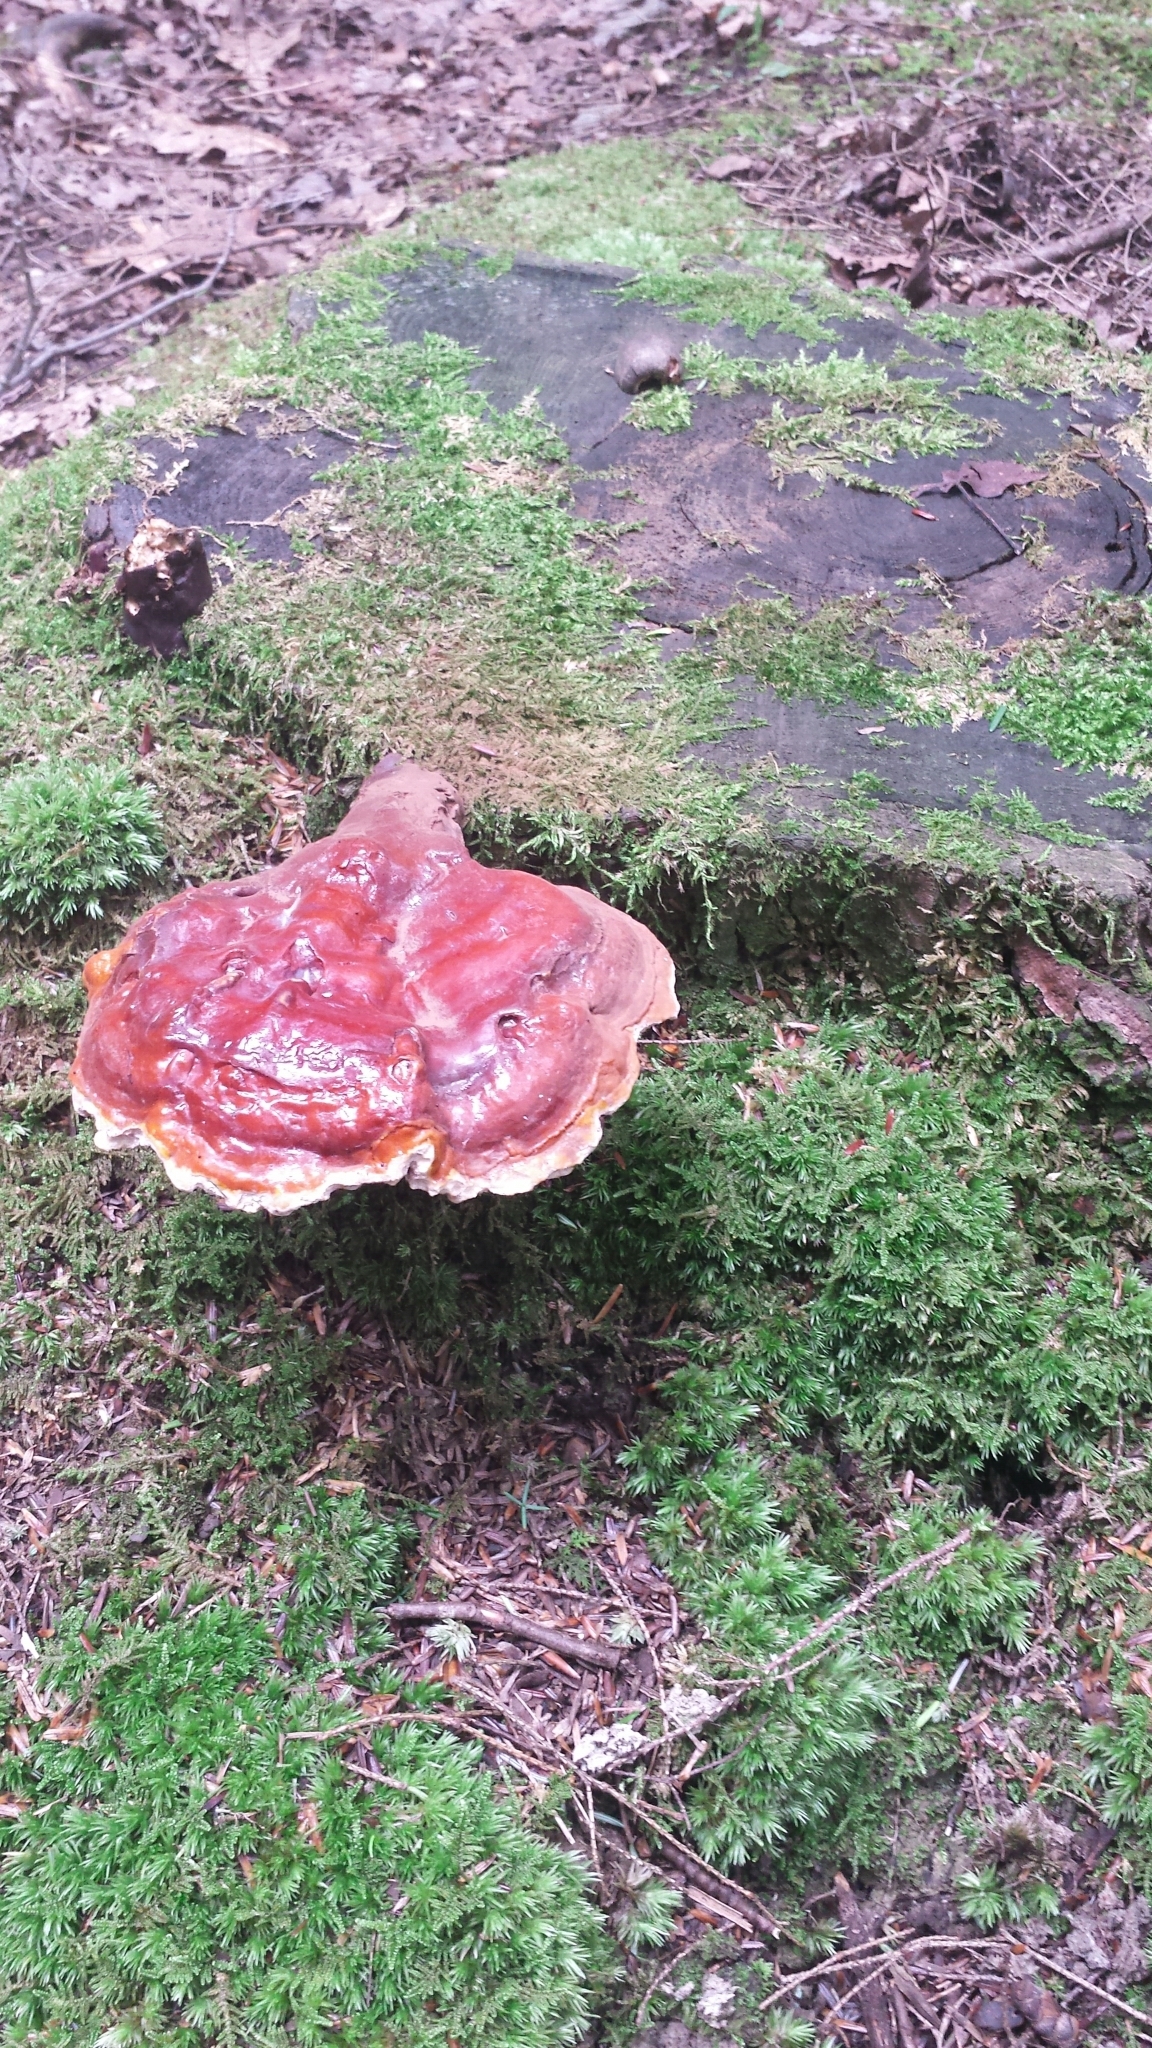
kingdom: Fungi
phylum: Basidiomycota
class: Agaricomycetes
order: Polyporales
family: Polyporaceae
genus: Ganoderma
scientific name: Ganoderma tsugae
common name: Hemlock varnish shelf
